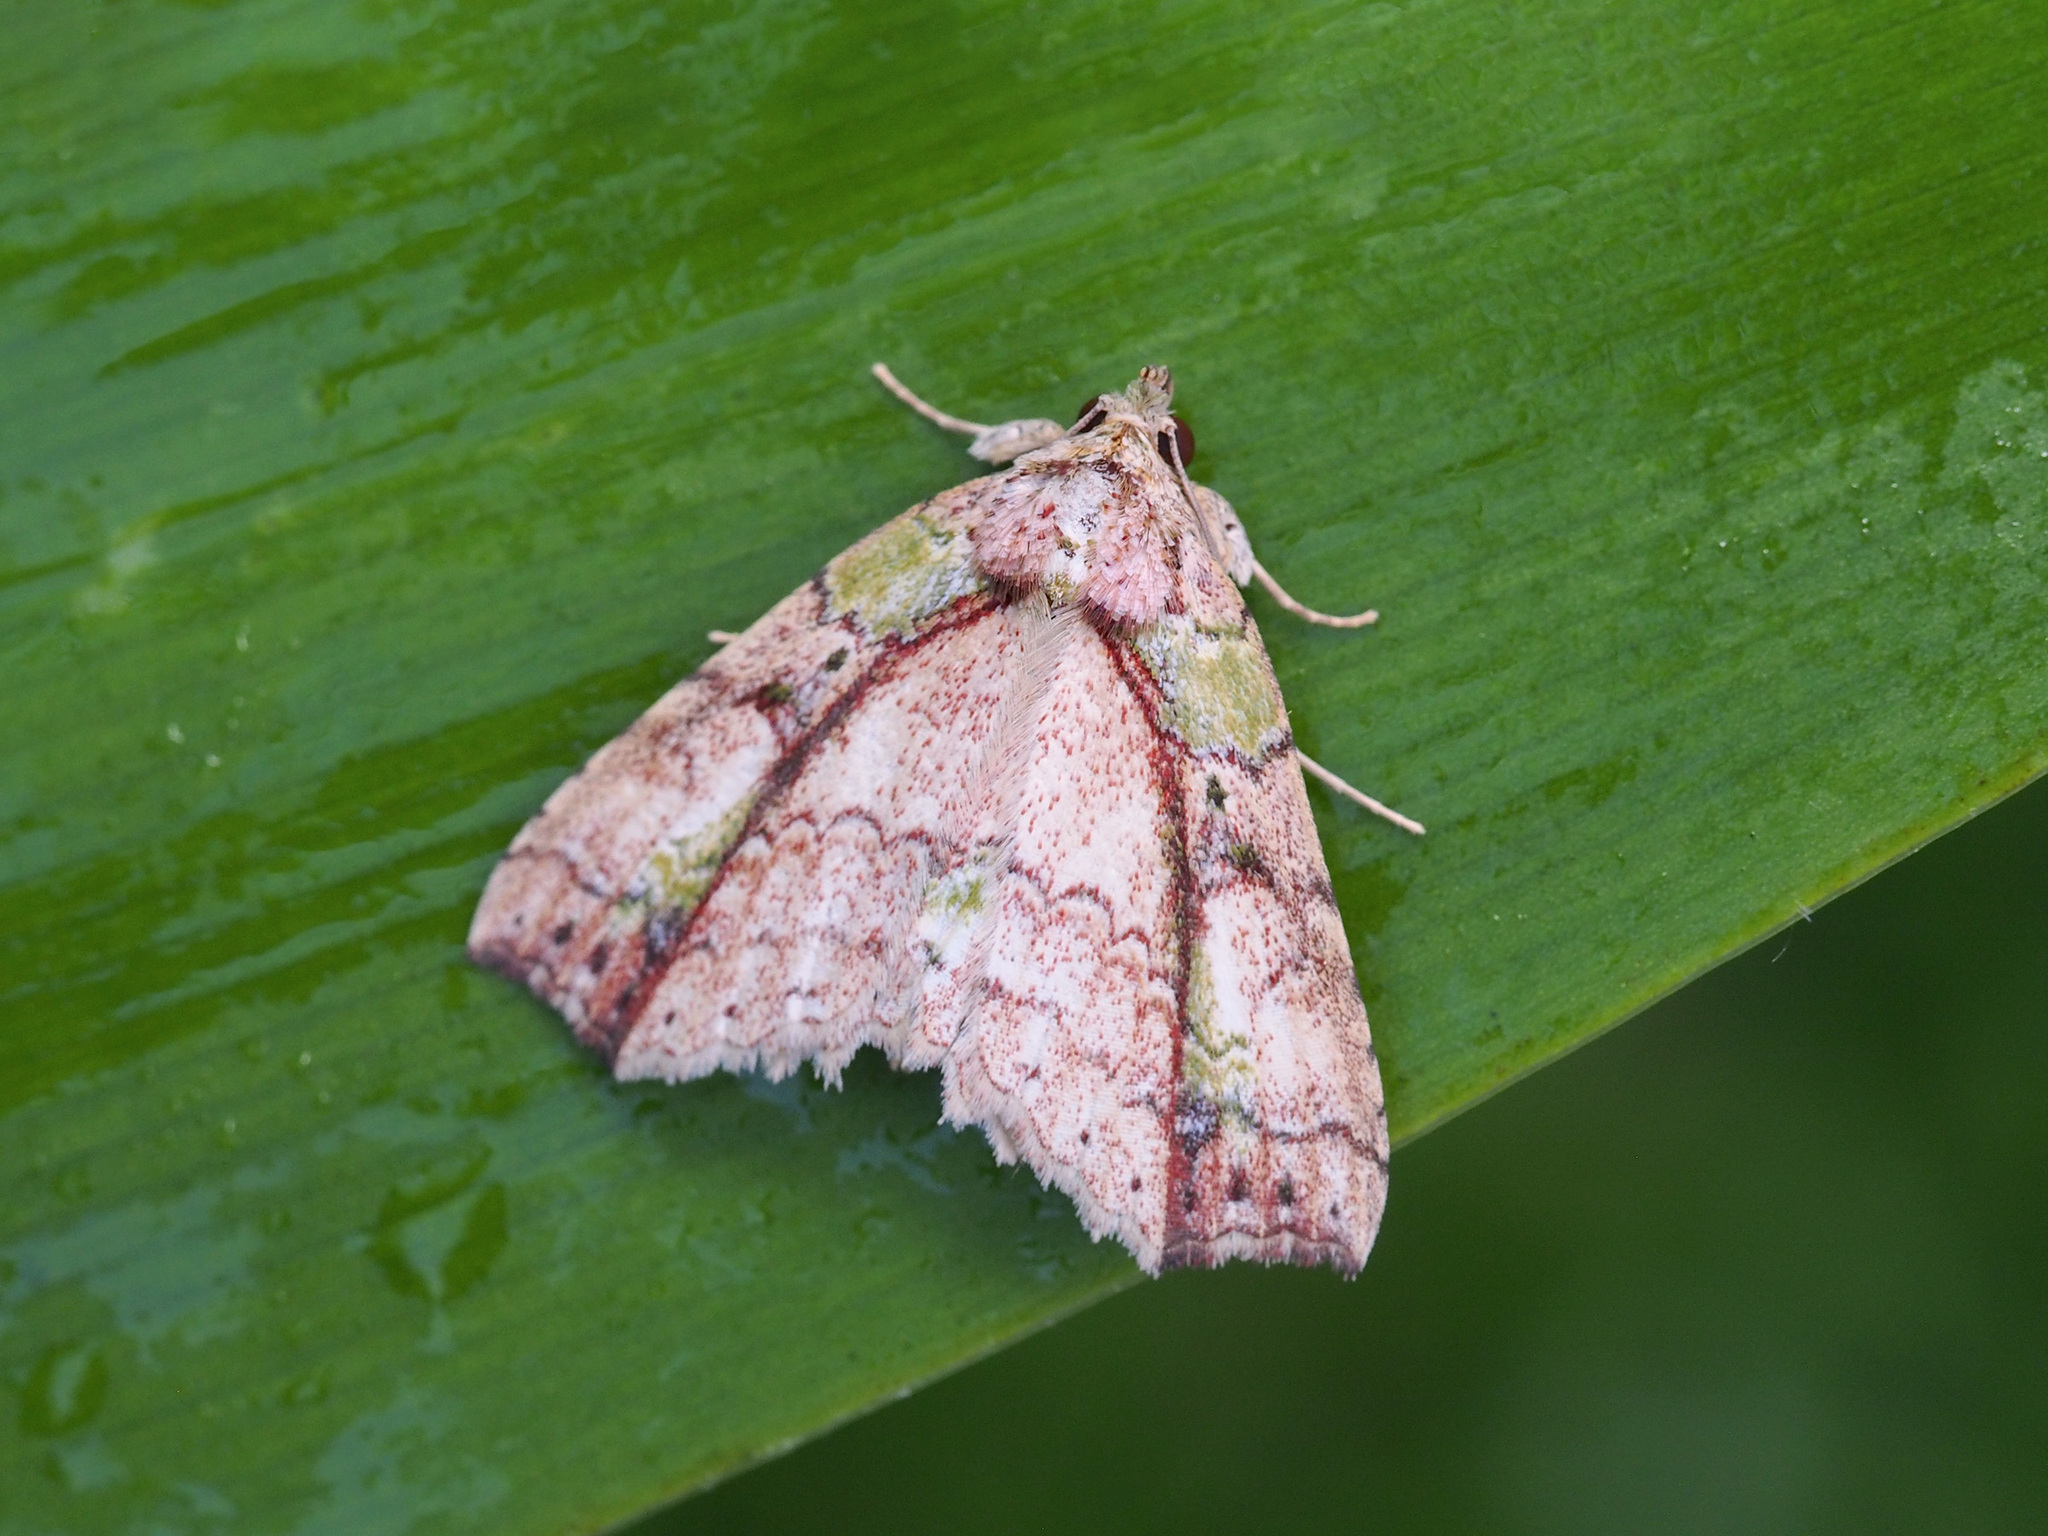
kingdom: Animalia
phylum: Arthropoda
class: Insecta
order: Lepidoptera
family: Erebidae
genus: Tamba
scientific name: Tamba mnionomera
